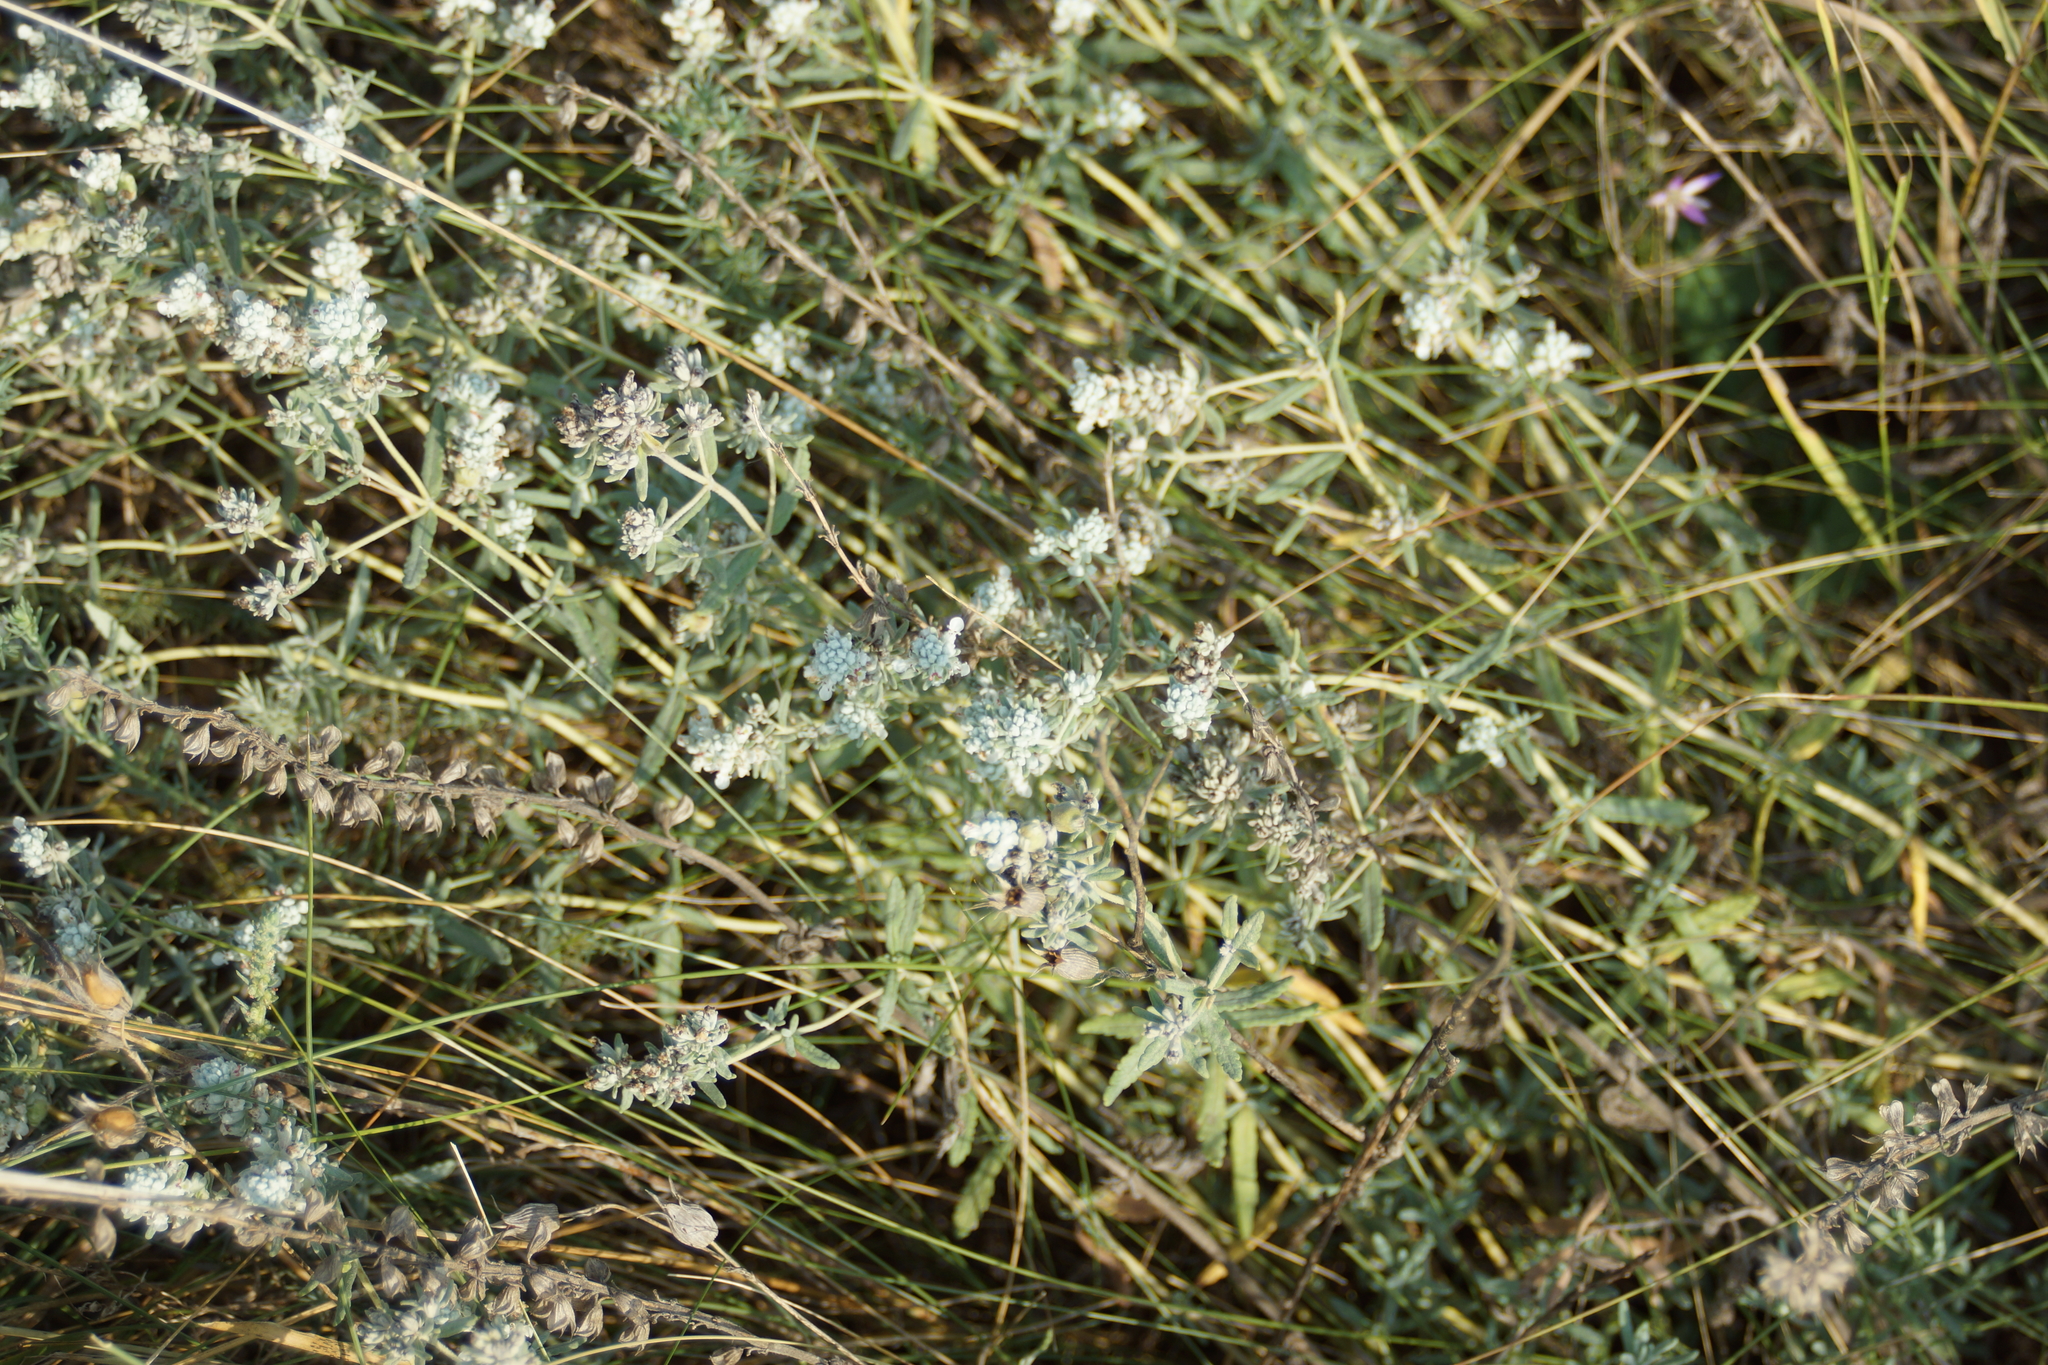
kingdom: Plantae
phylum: Tracheophyta
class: Magnoliopsida
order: Lamiales
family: Lamiaceae
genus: Teucrium
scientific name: Teucrium polium
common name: Poley
